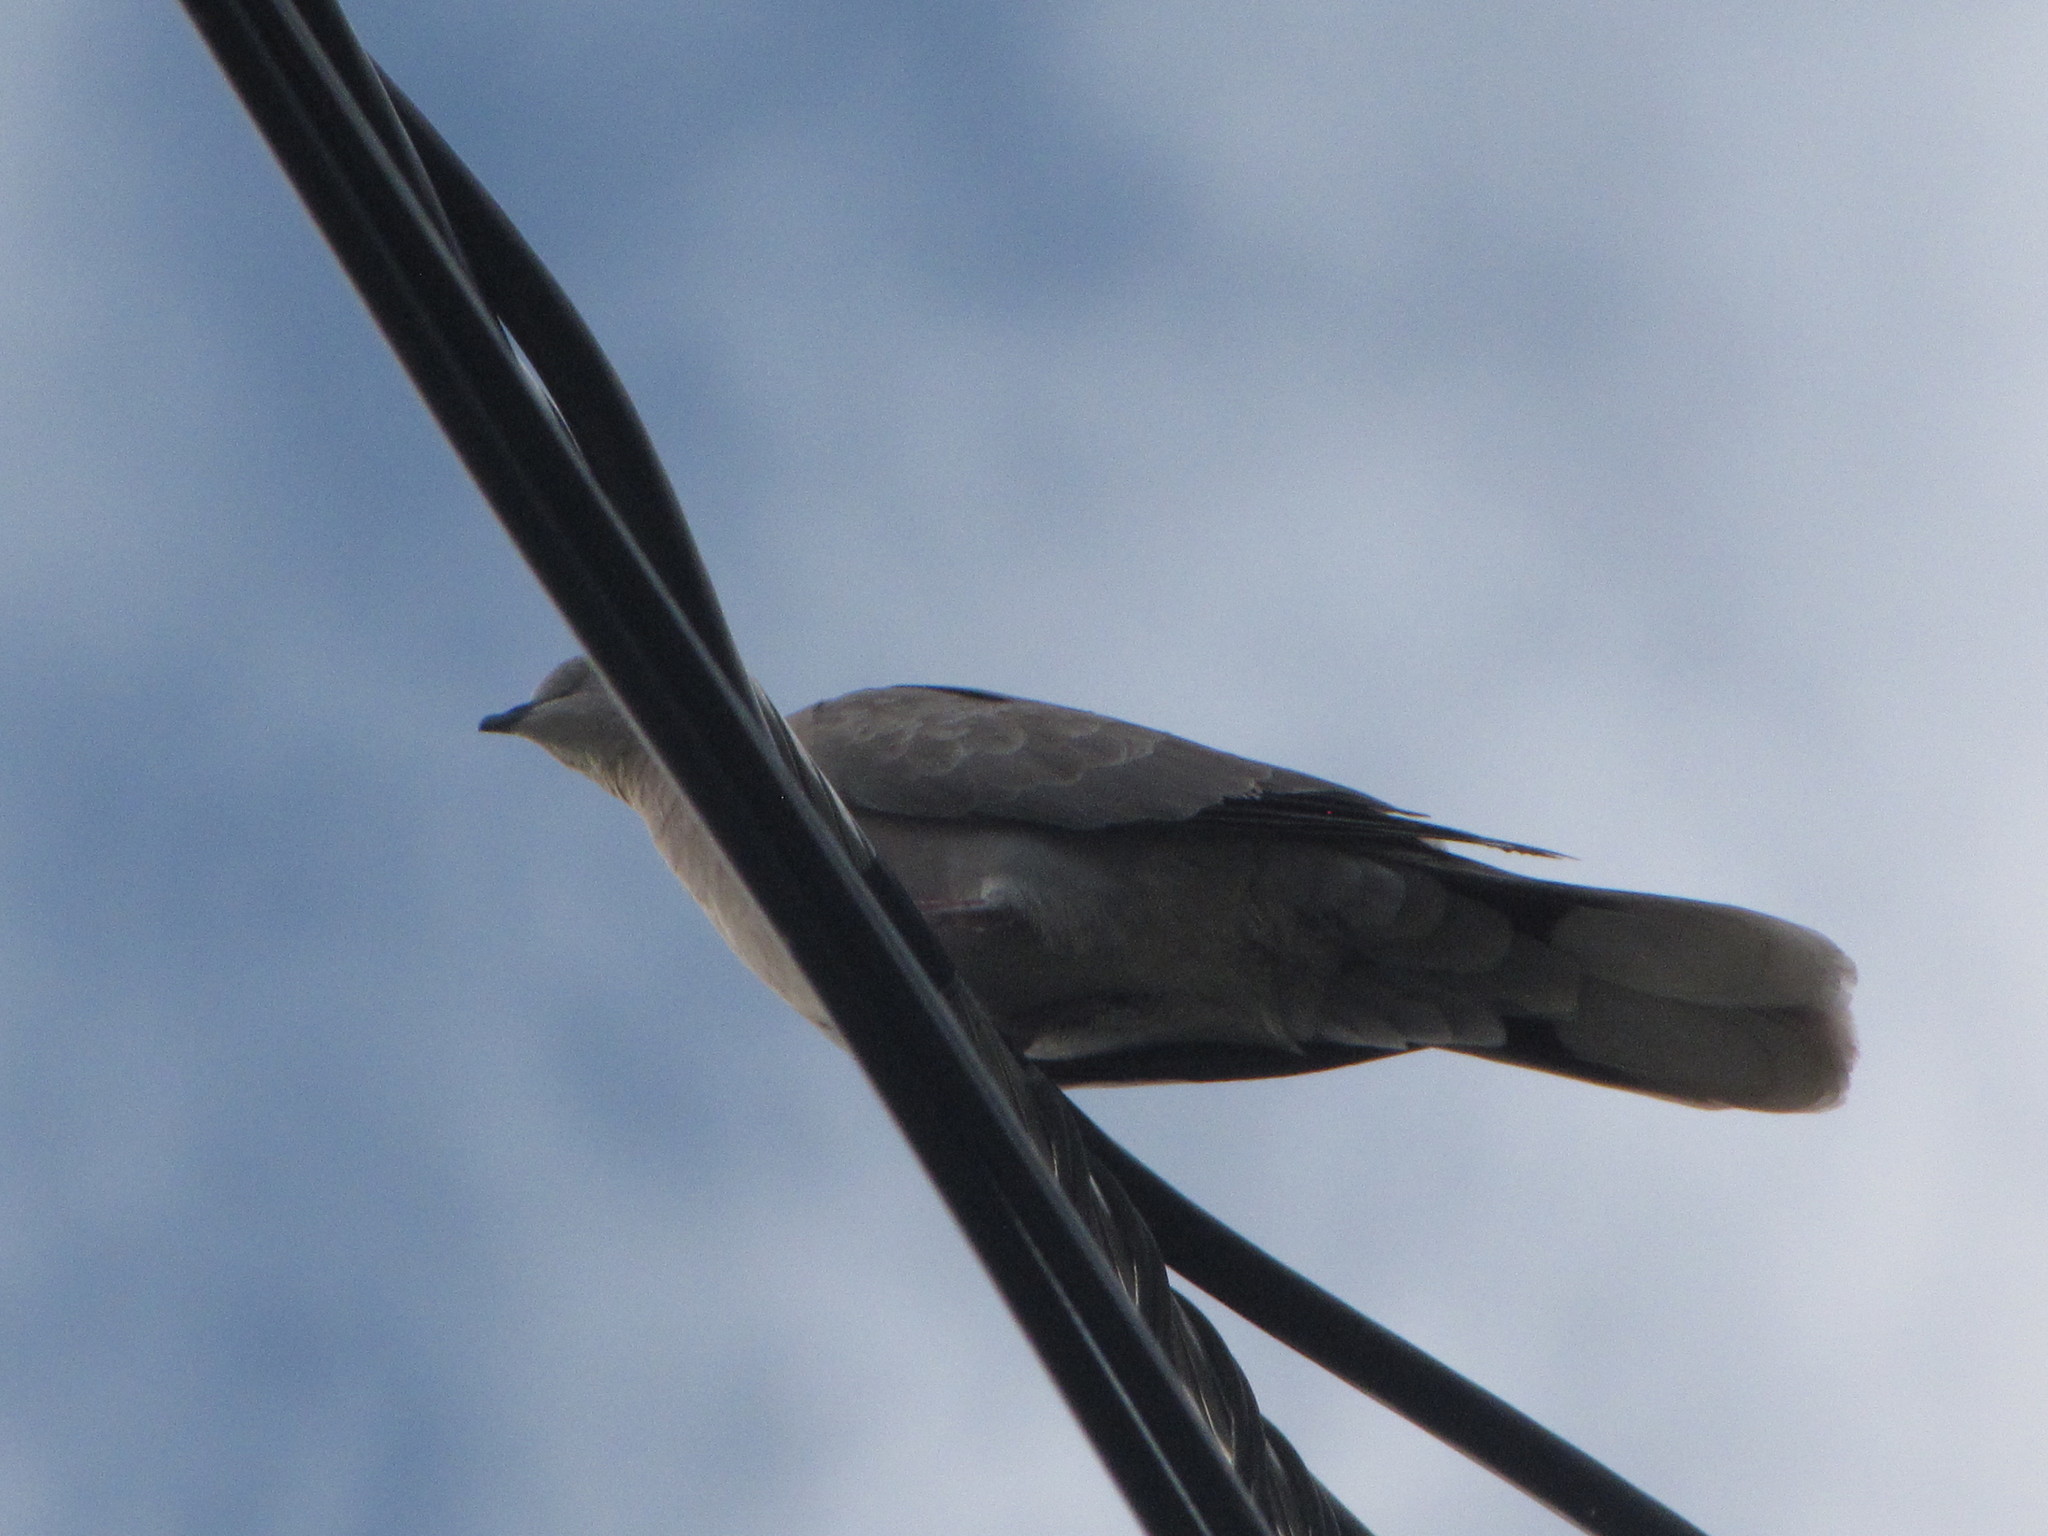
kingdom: Animalia
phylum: Chordata
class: Aves
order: Columbiformes
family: Columbidae
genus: Streptopelia
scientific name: Streptopelia decaocto
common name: Eurasian collared dove
